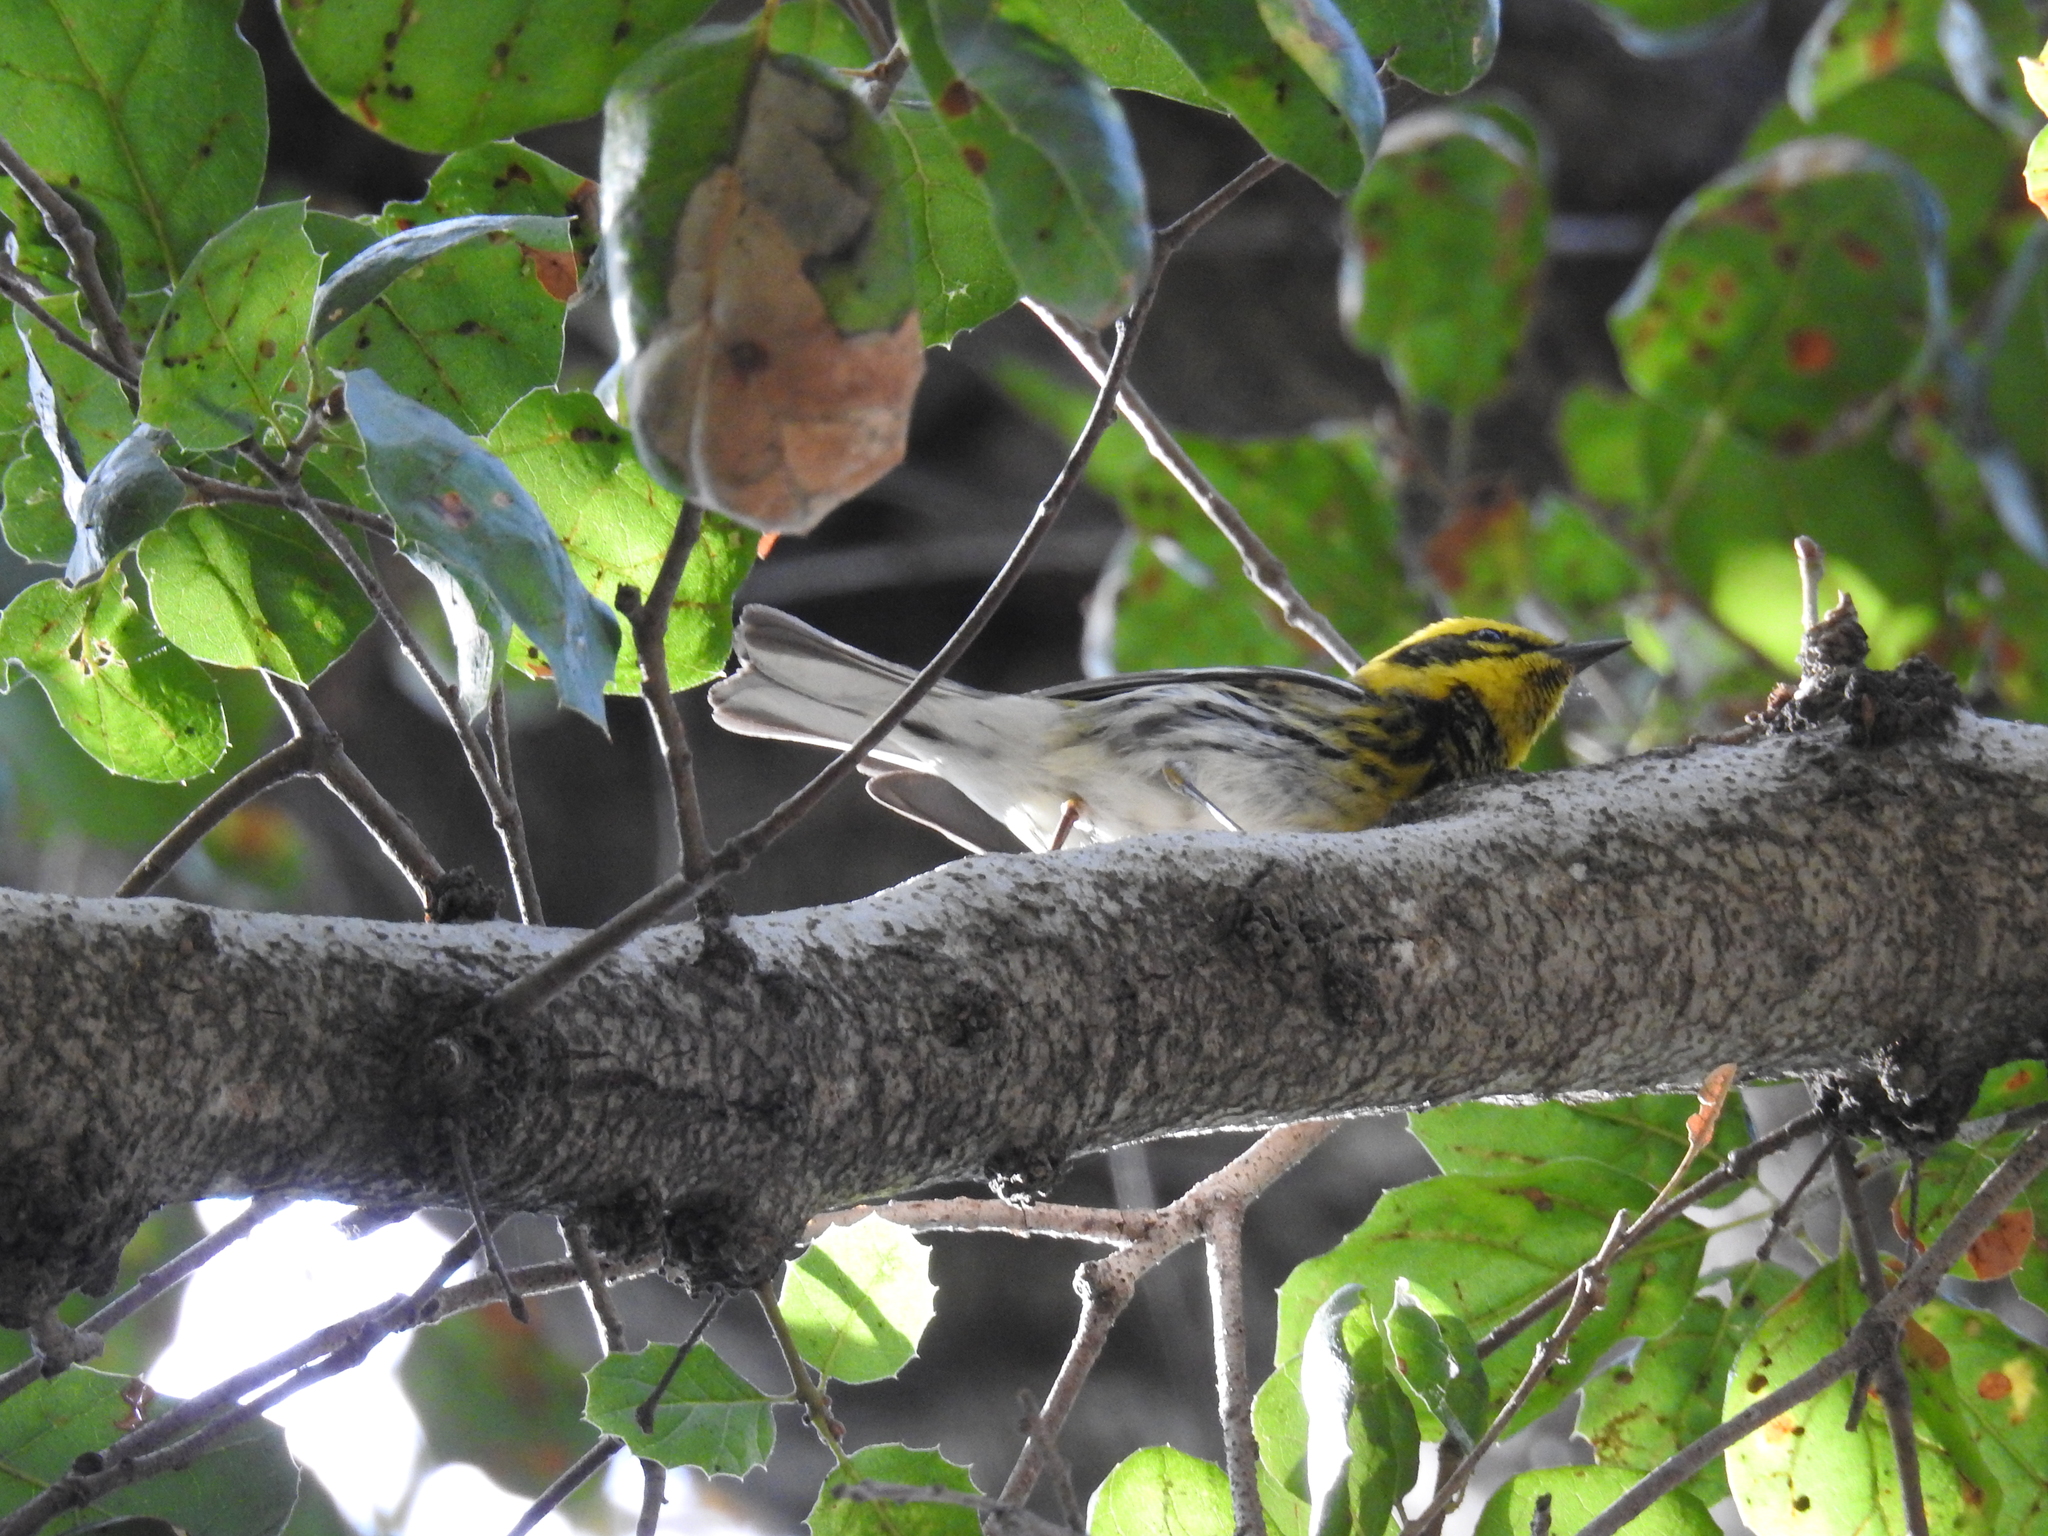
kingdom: Animalia
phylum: Chordata
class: Aves
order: Passeriformes
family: Parulidae
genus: Setophaga
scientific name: Setophaga townsendi
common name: Townsend's warbler
